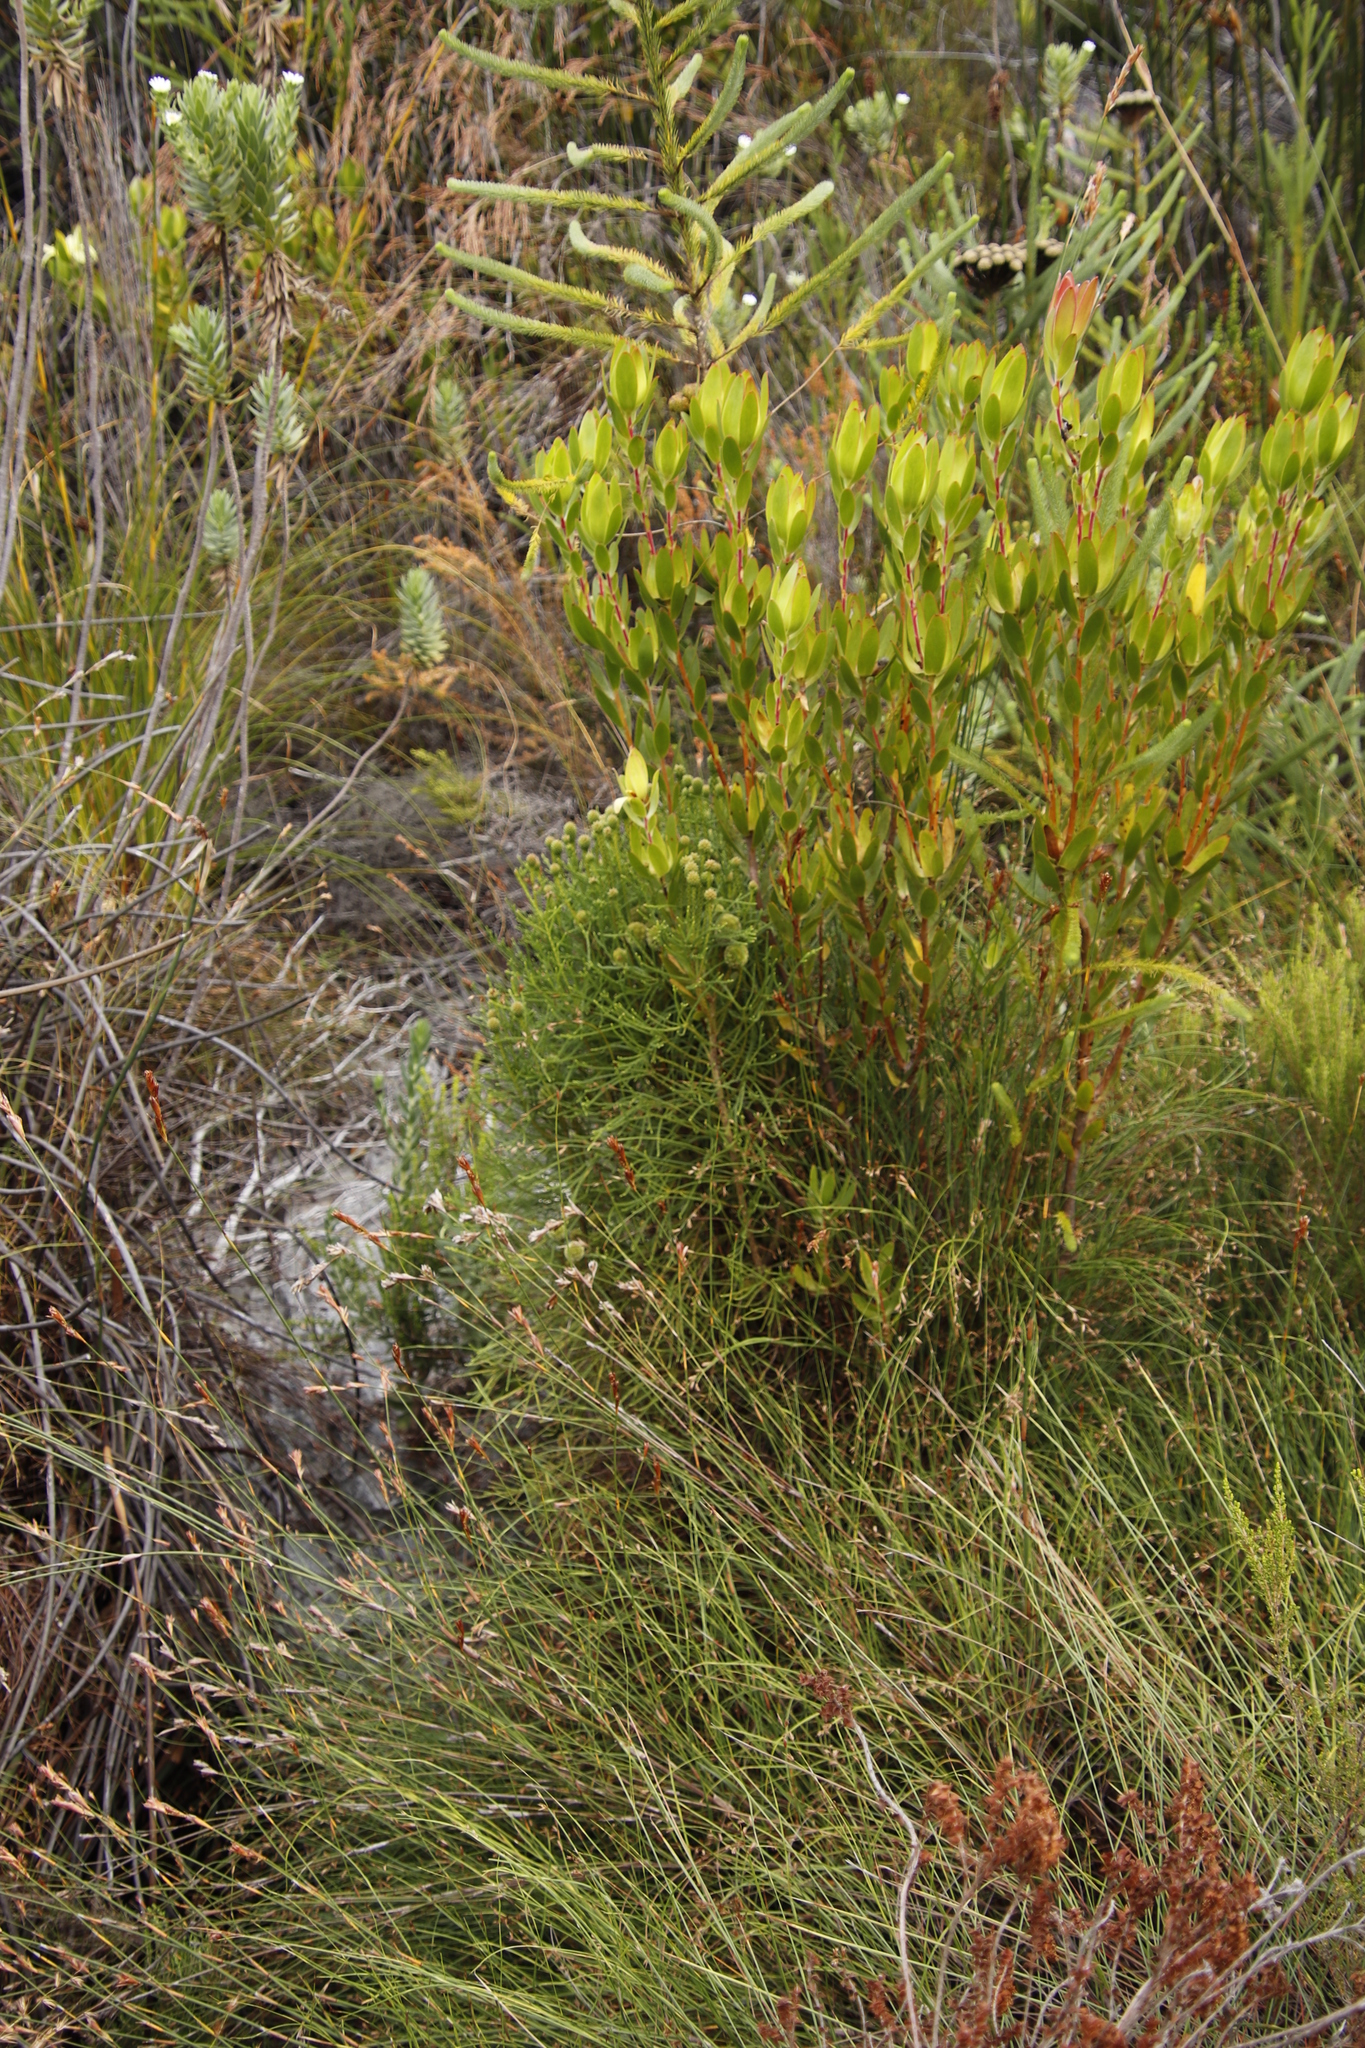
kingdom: Plantae
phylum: Tracheophyta
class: Magnoliopsida
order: Bruniales
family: Bruniaceae
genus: Brunia
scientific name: Brunia fragarioides
